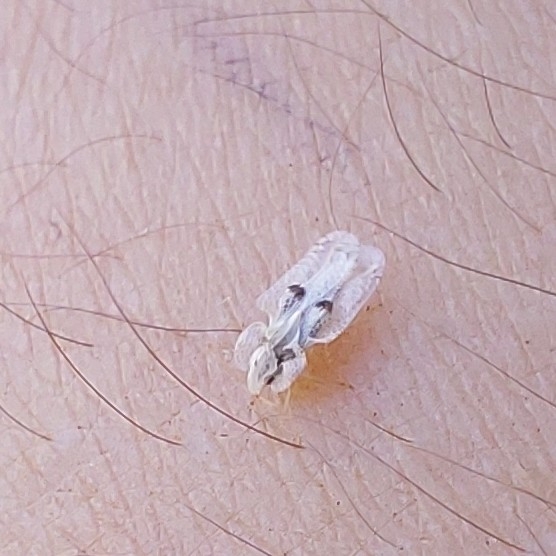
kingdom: Animalia
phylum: Arthropoda
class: Insecta
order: Hemiptera
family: Tingidae
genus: Corythucha
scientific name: Corythucha ciliata
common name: Sycamore lace bug
